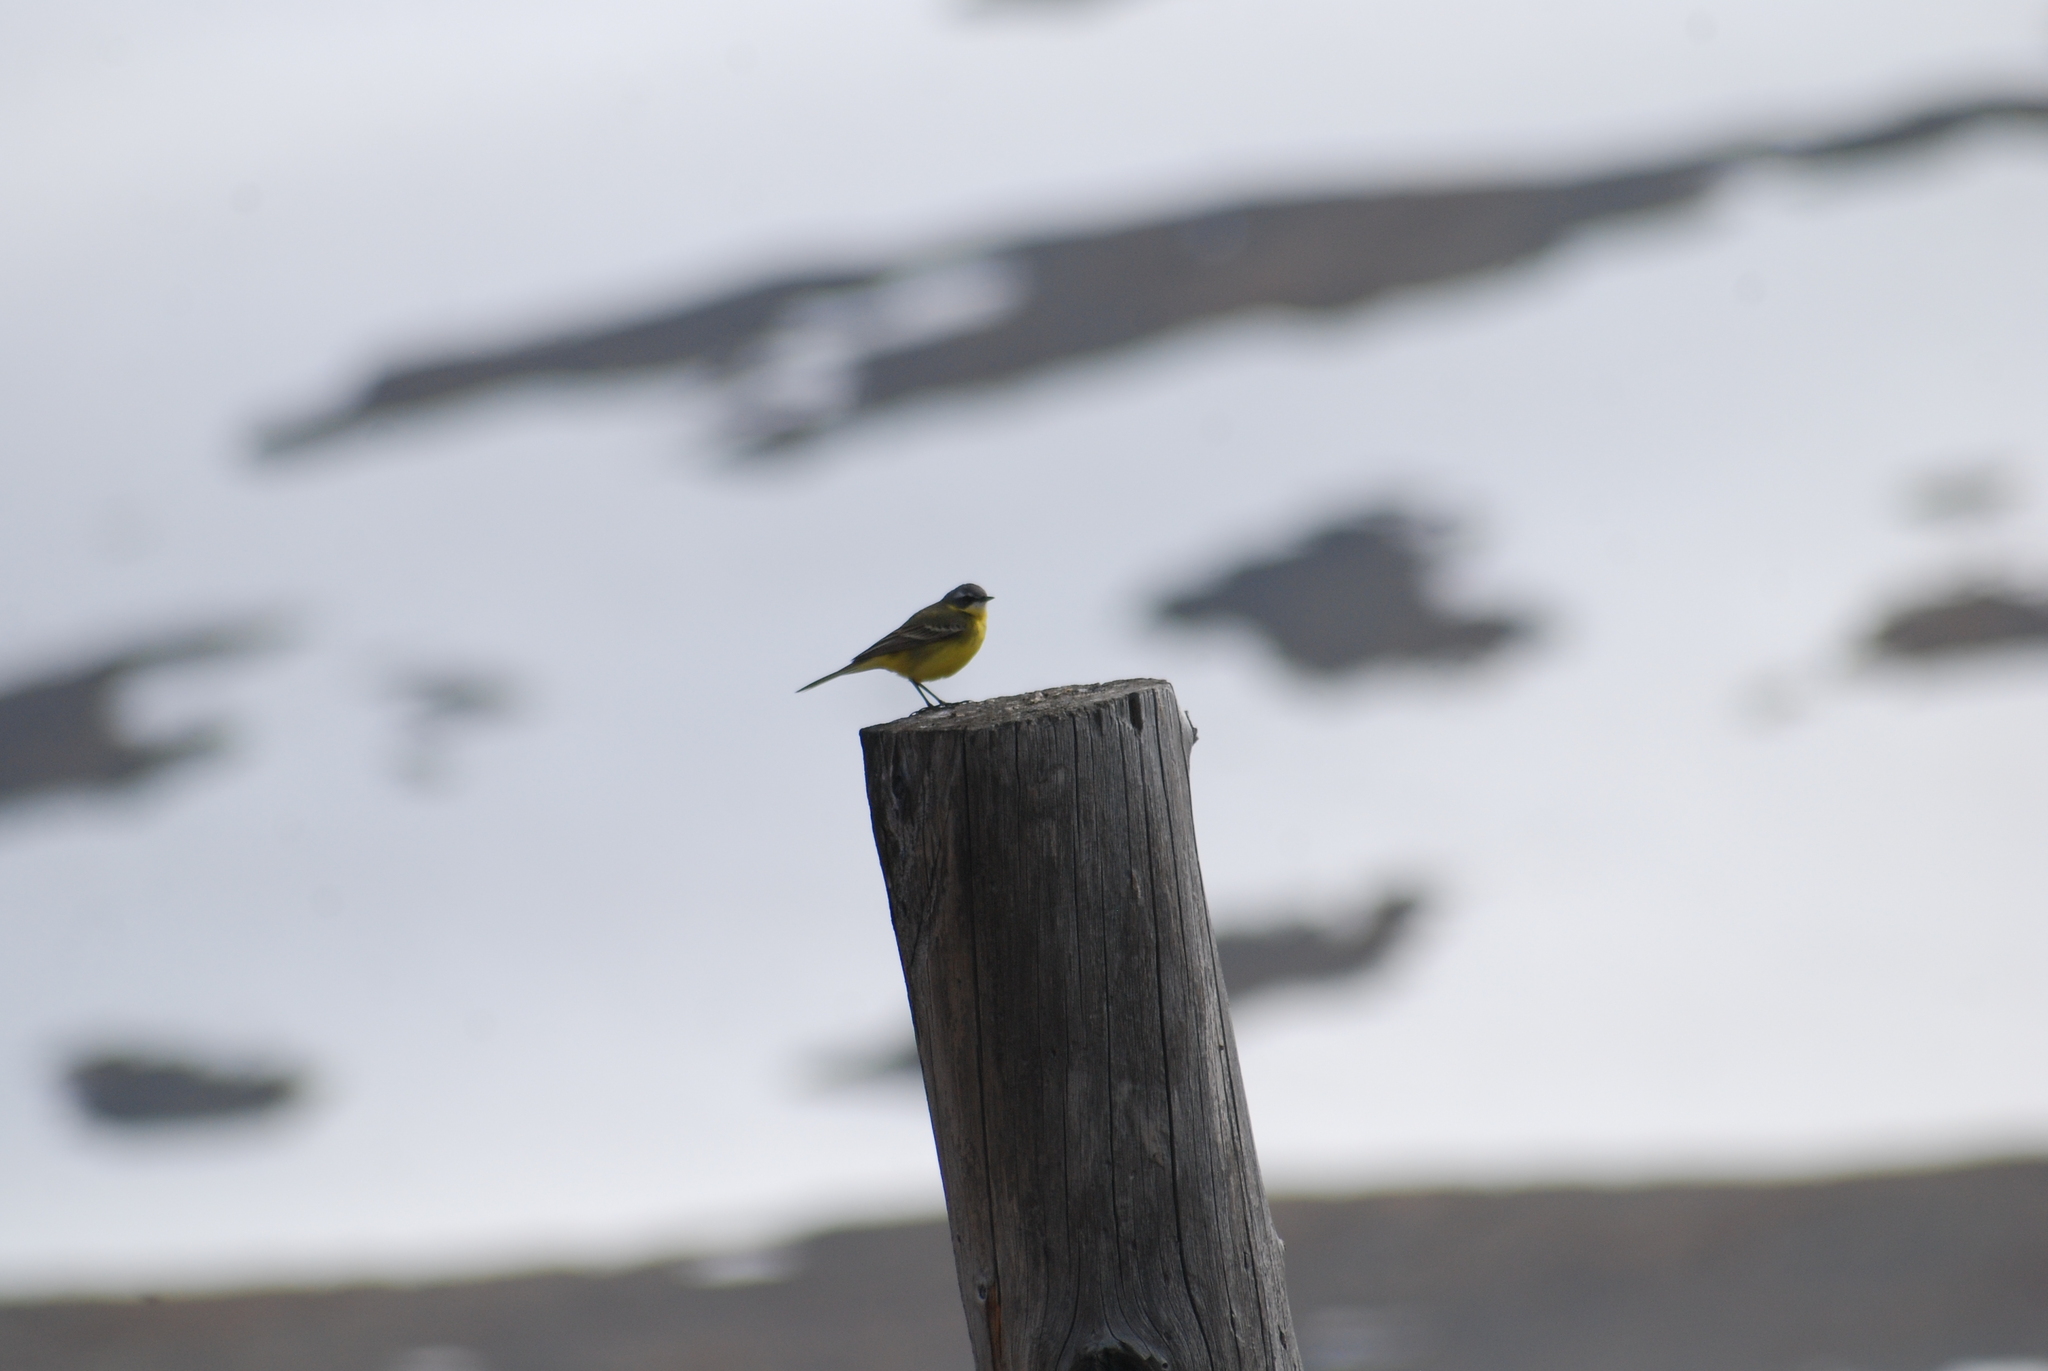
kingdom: Animalia
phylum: Chordata
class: Aves
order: Passeriformes
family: Motacillidae
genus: Motacilla
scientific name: Motacilla tschutschensis
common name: Eastern yellow wagtail
